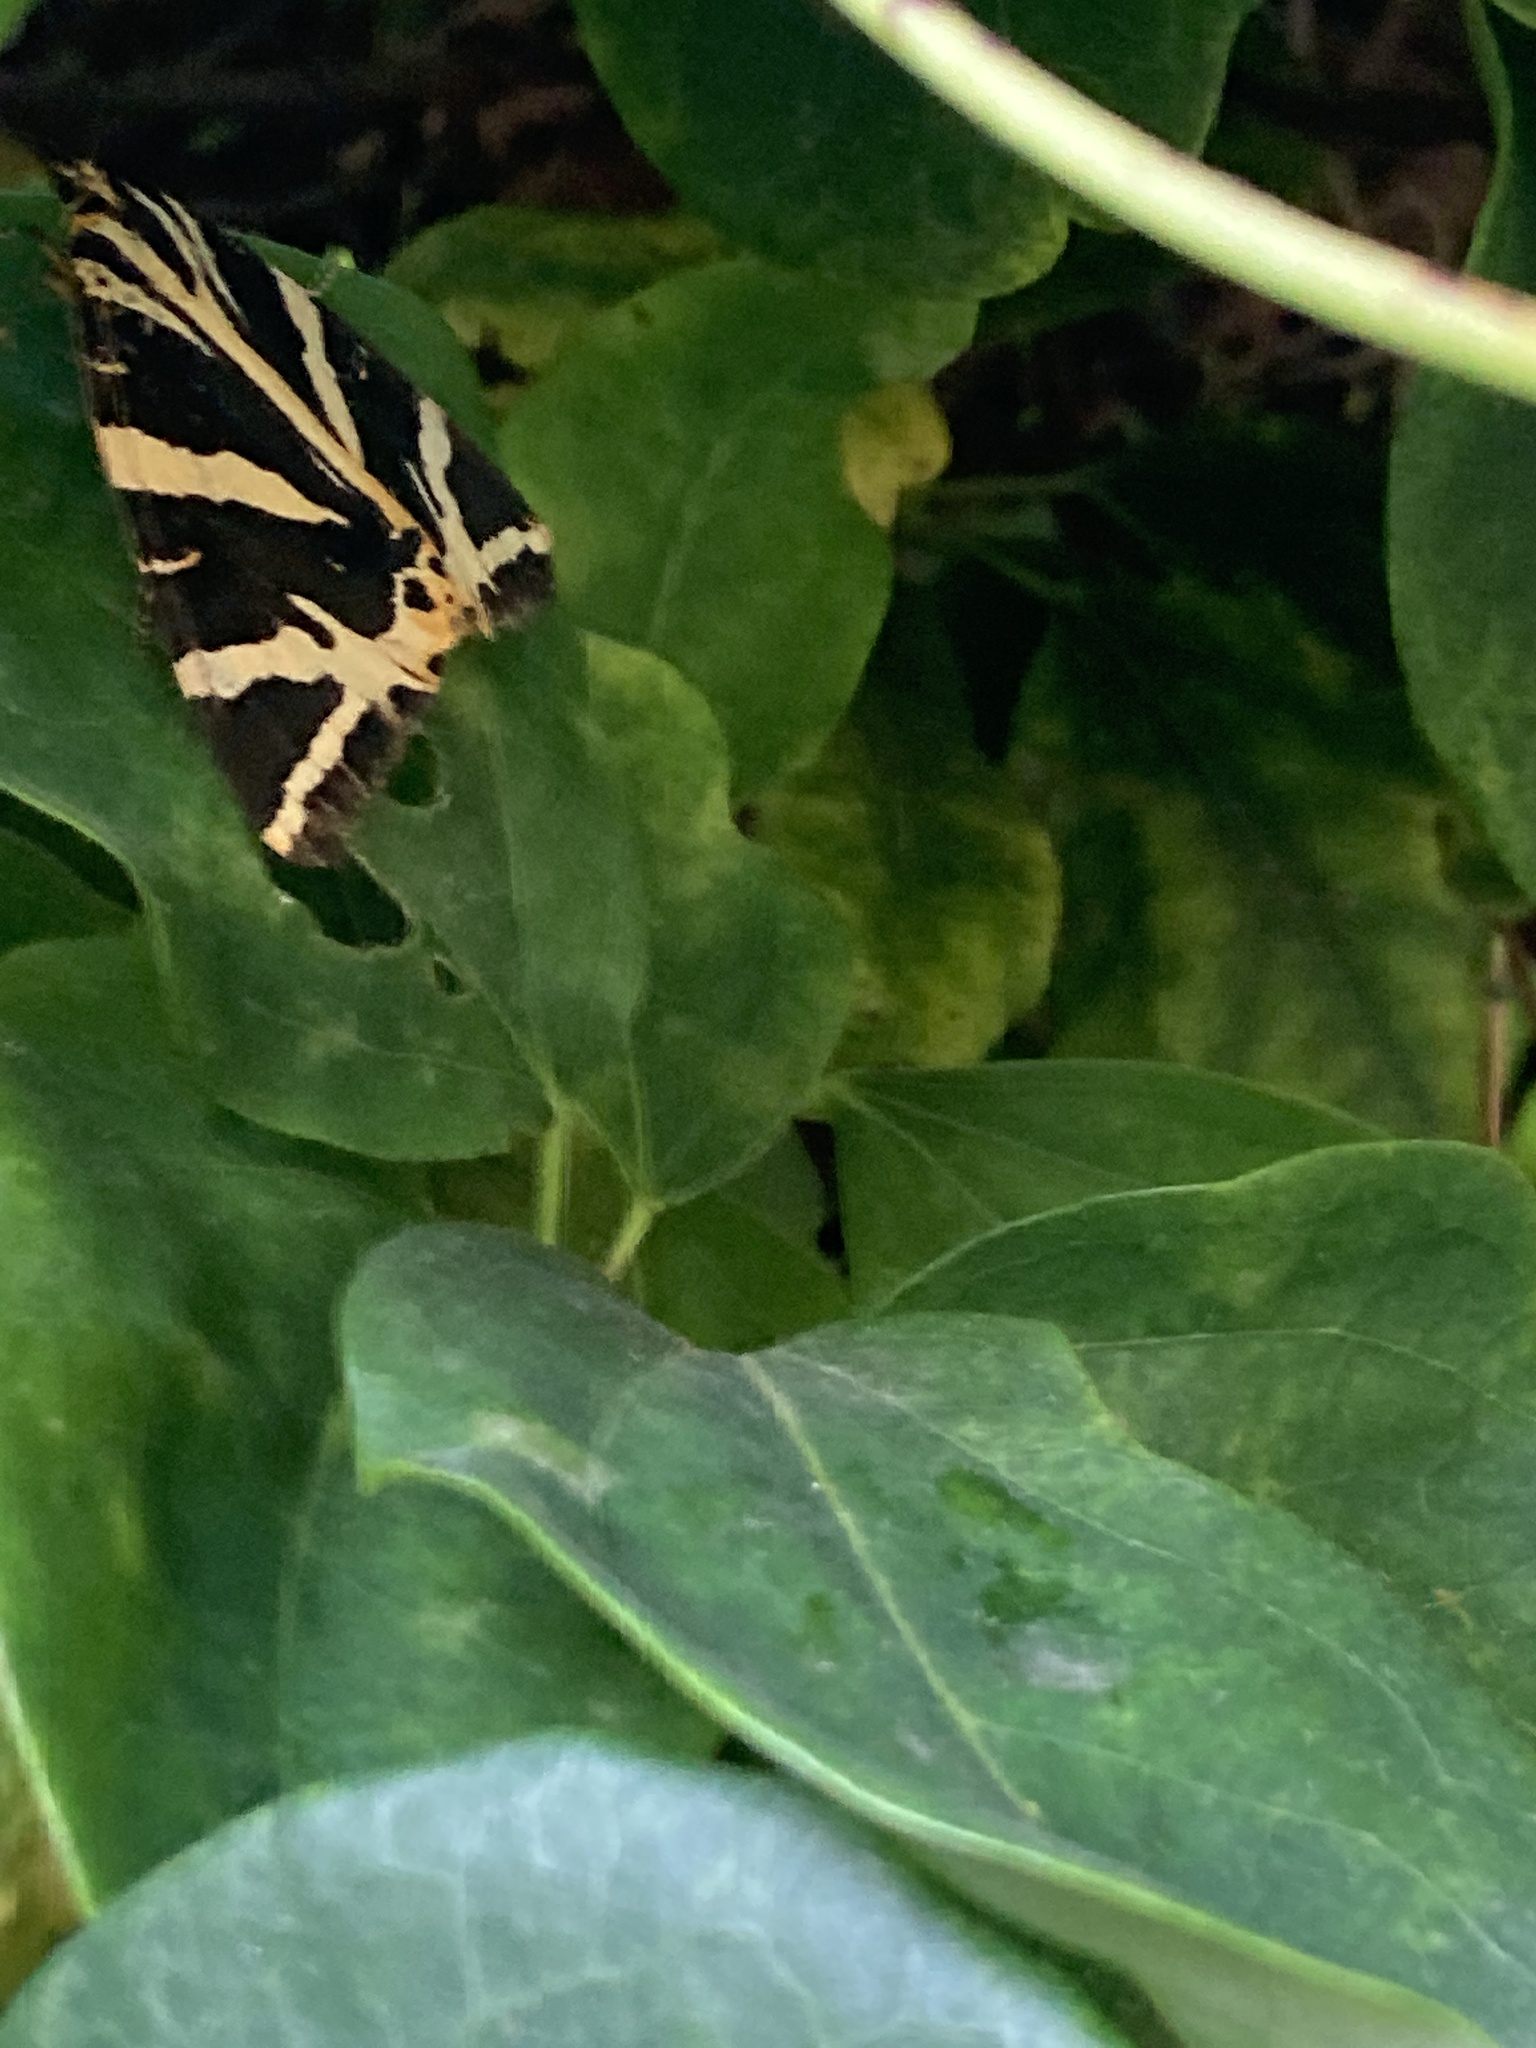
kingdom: Animalia
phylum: Arthropoda
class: Insecta
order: Lepidoptera
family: Erebidae
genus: Euplagia
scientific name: Euplagia quadripunctaria
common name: Jersey tiger
